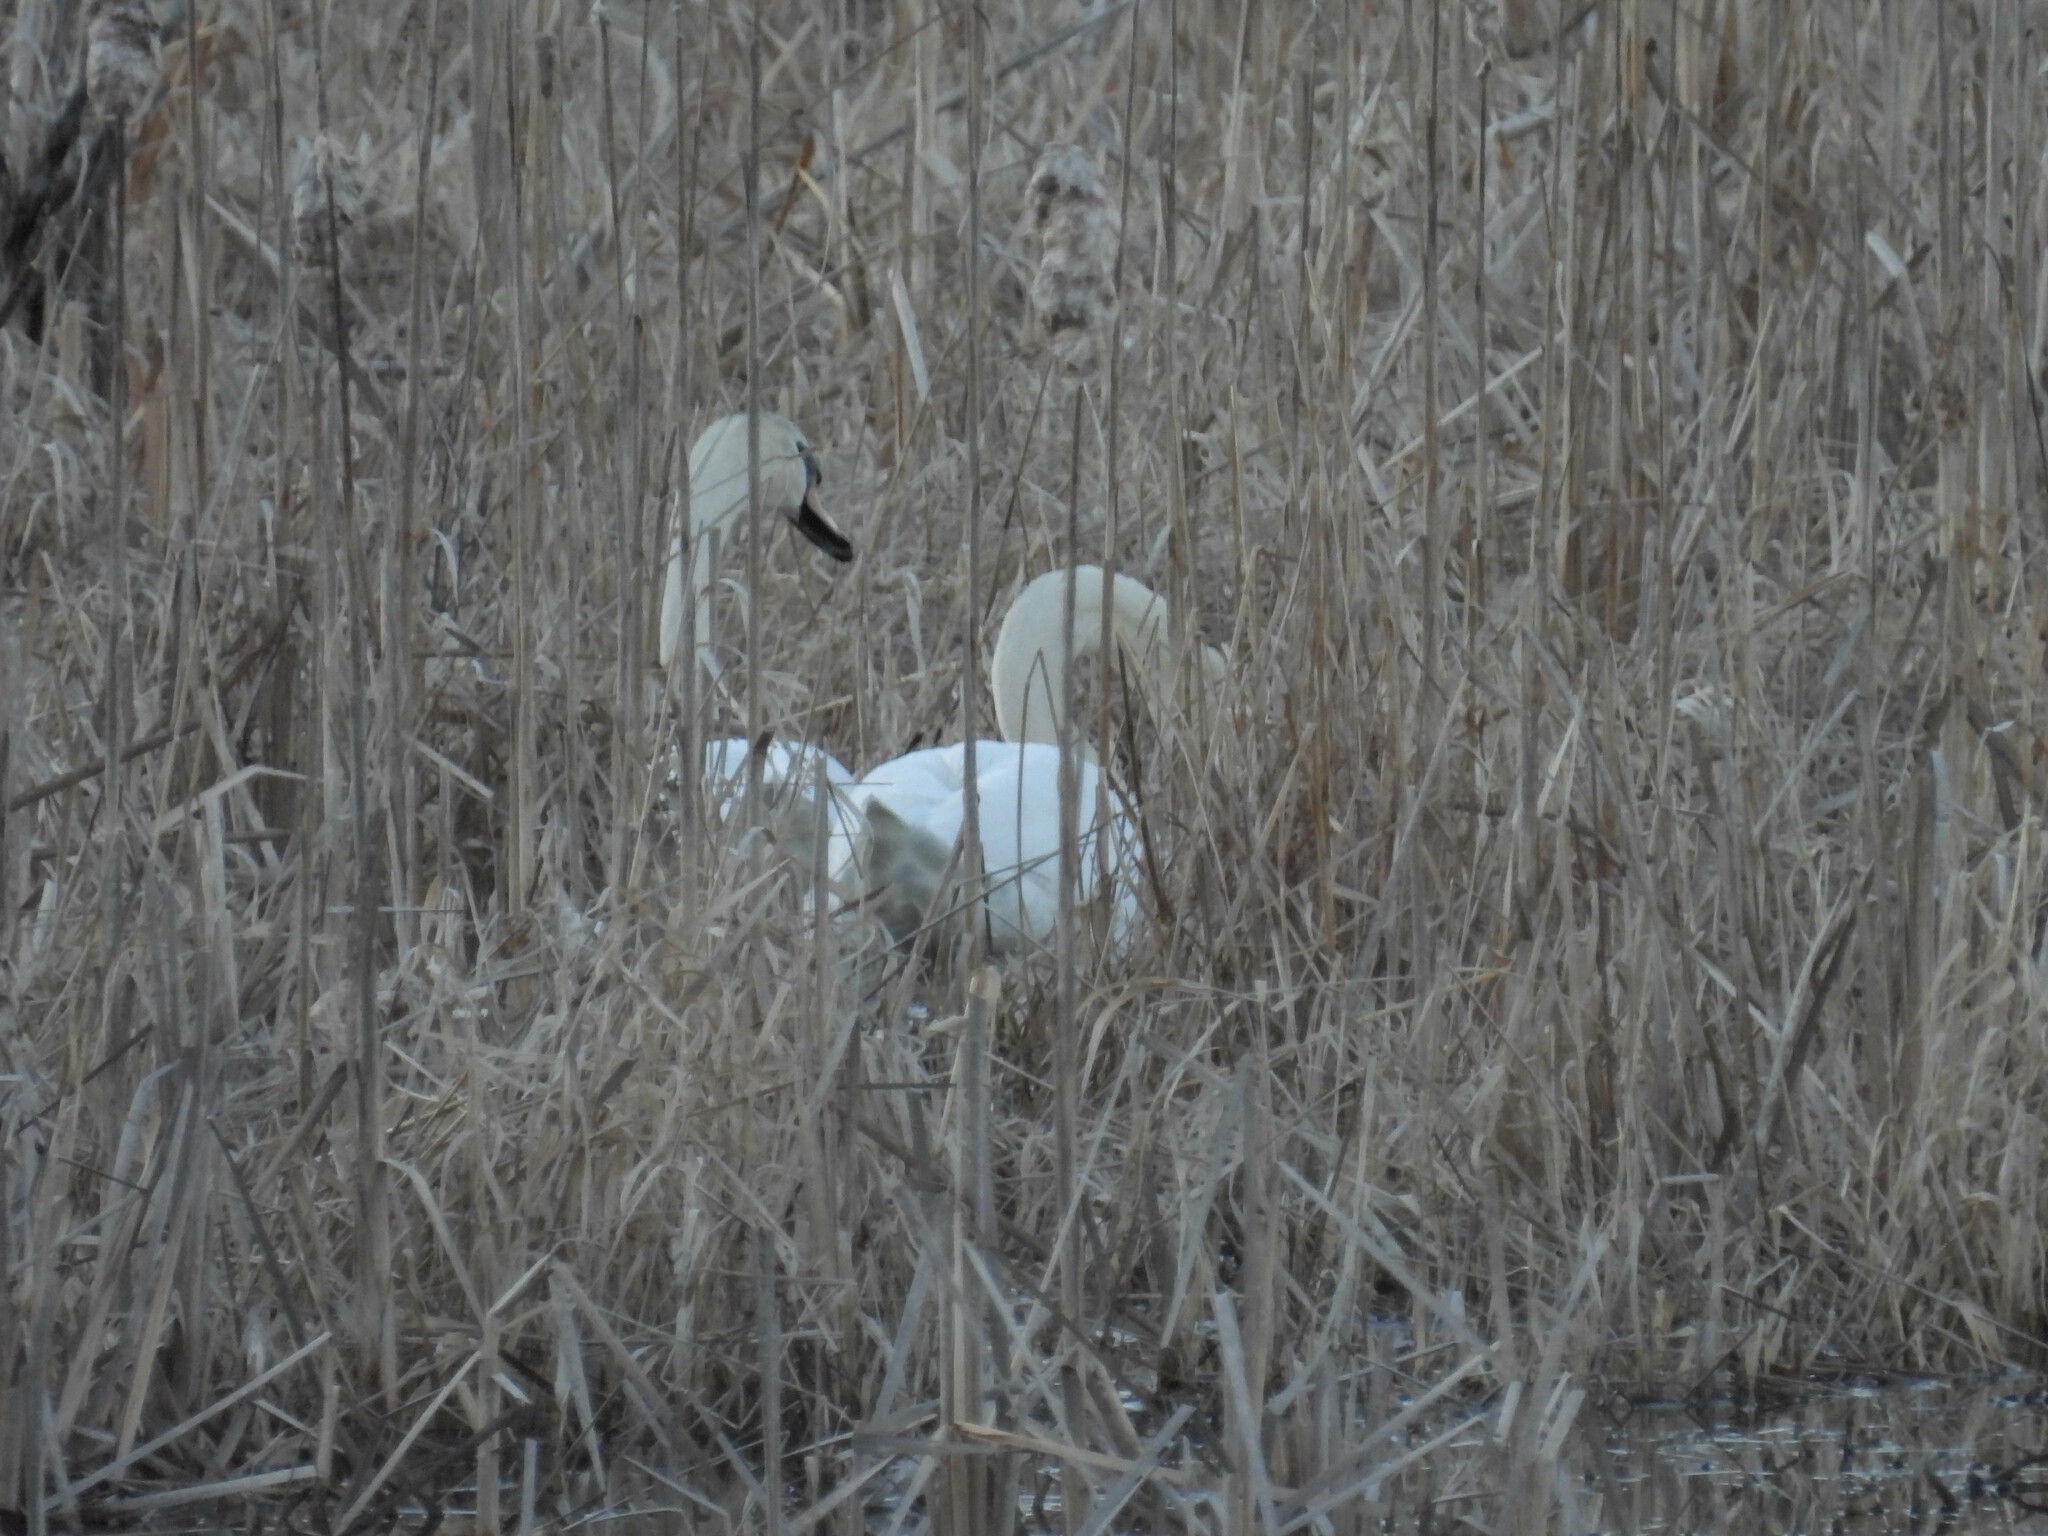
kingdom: Animalia
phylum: Chordata
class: Aves
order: Anseriformes
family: Anatidae
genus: Cygnus
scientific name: Cygnus olor
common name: Mute swan
